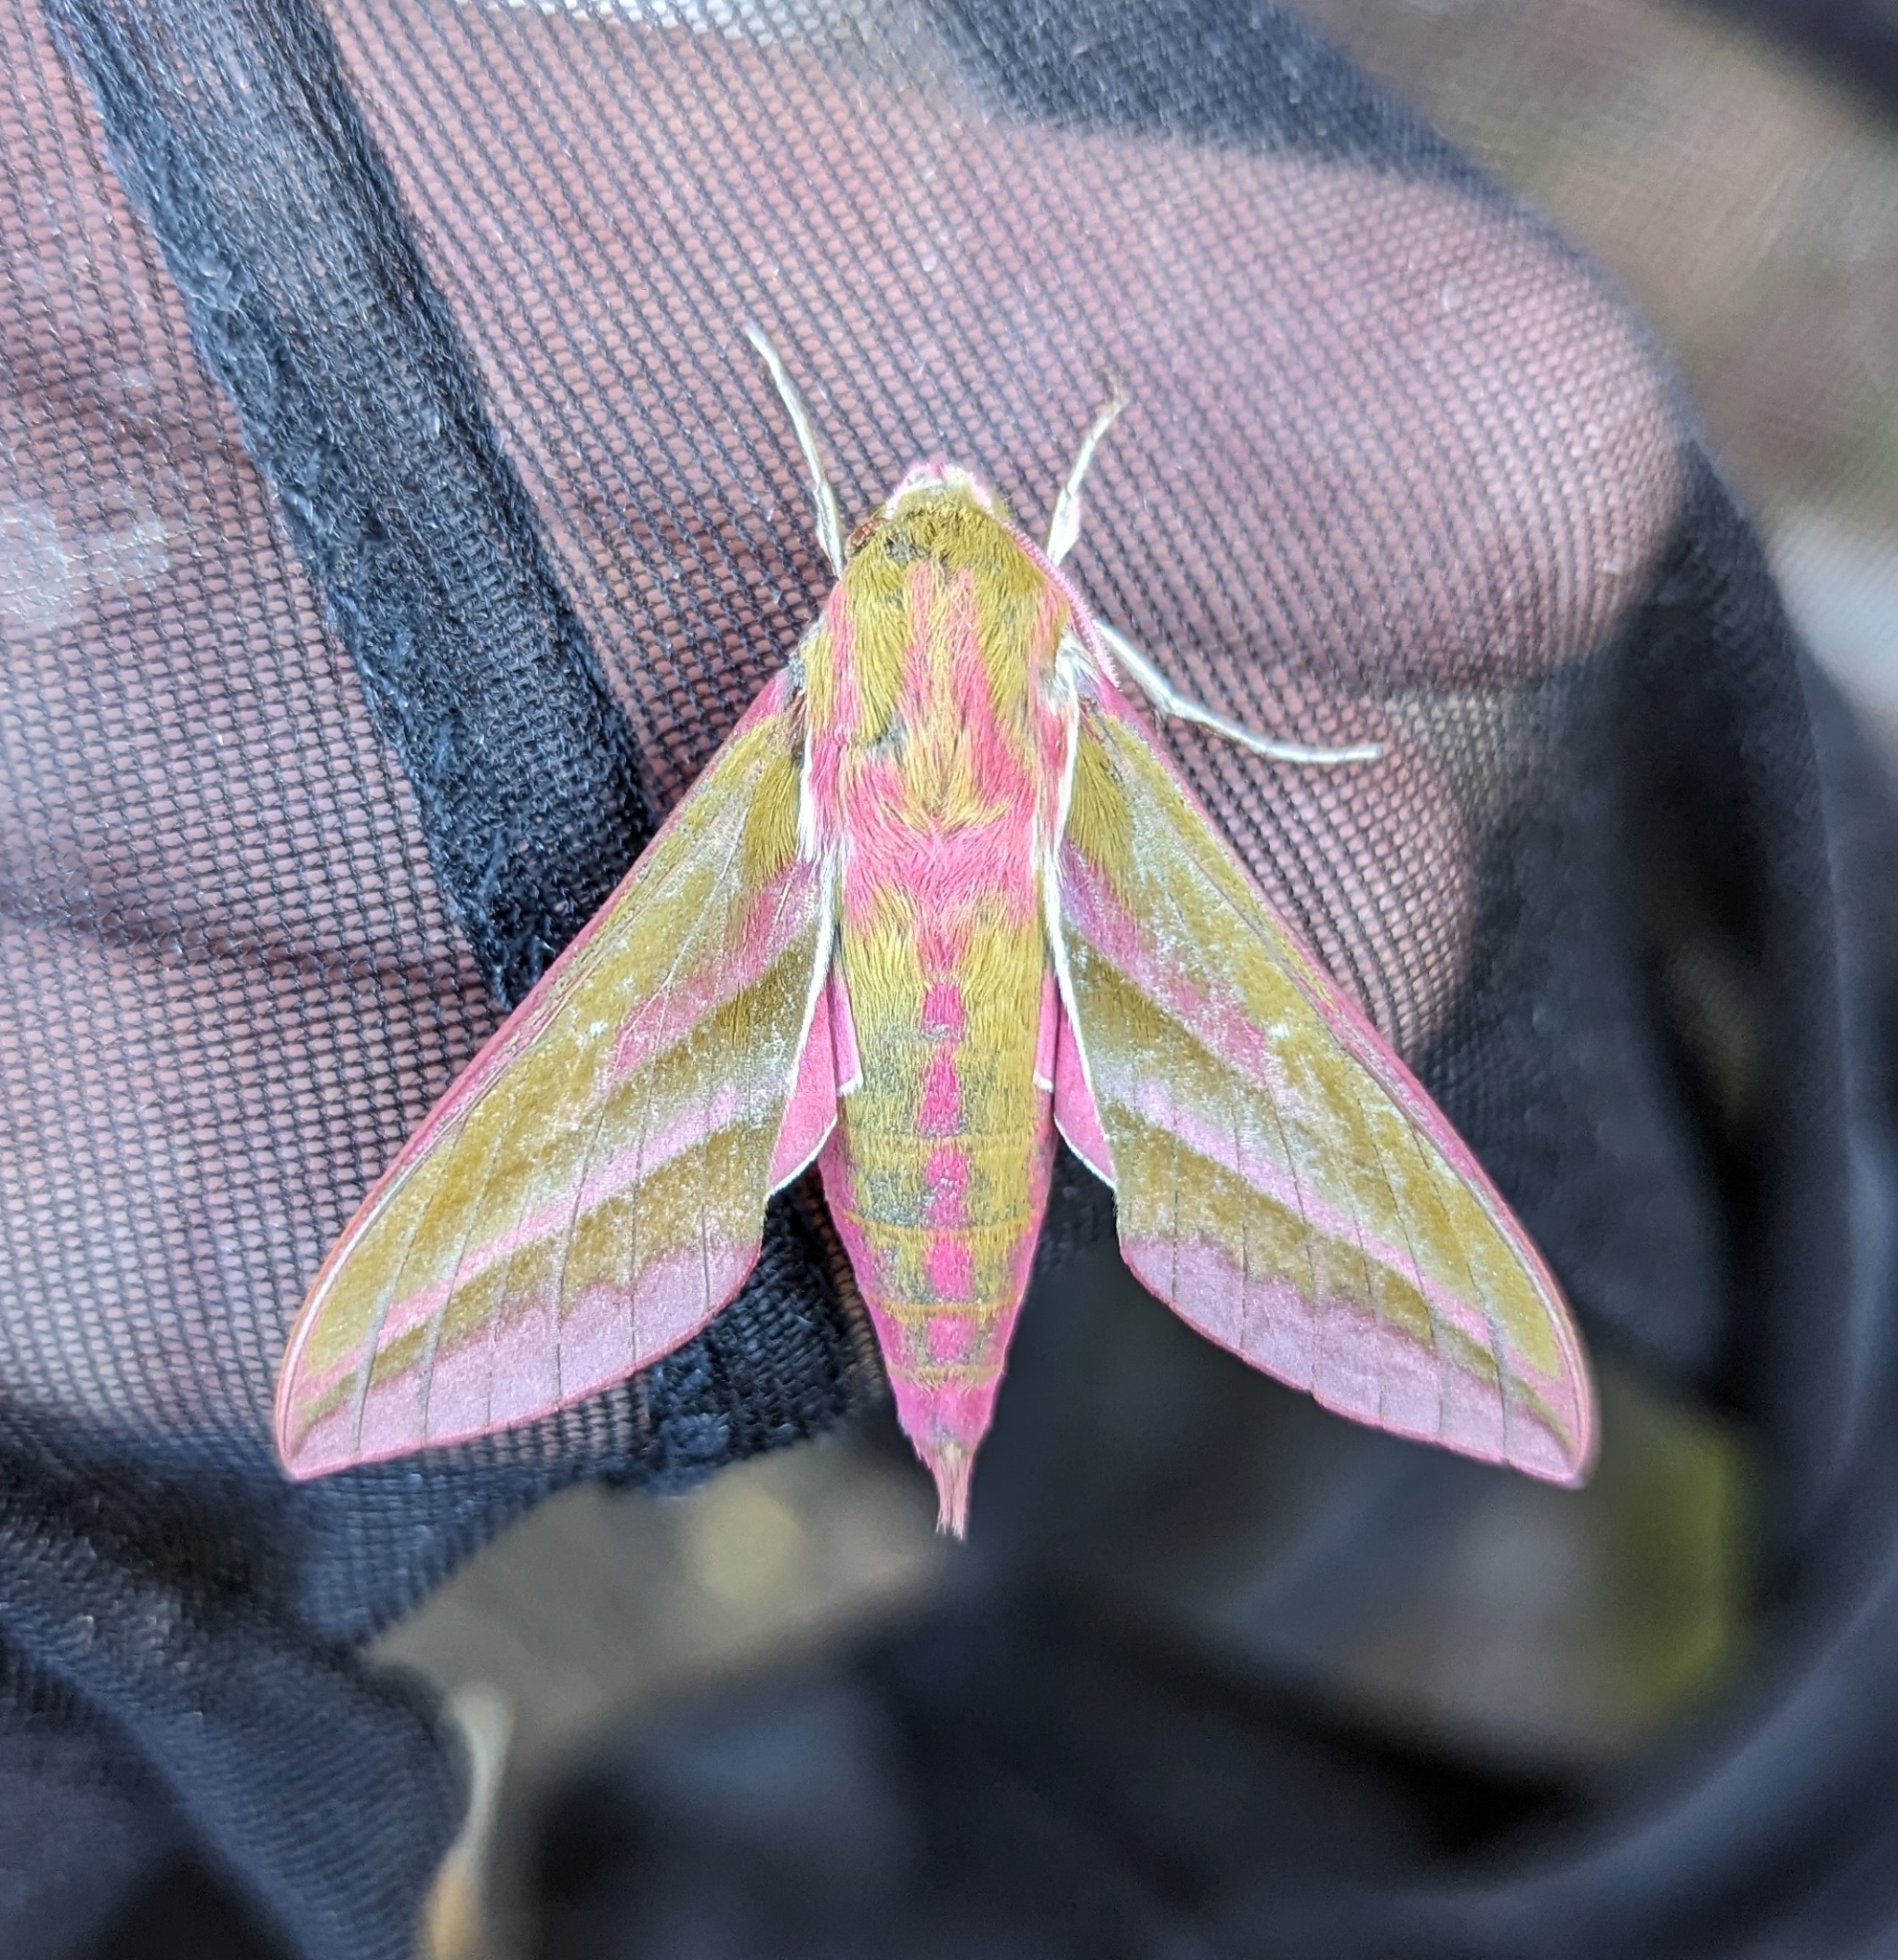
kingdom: Animalia
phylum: Arthropoda
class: Insecta
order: Lepidoptera
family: Sphingidae
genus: Deilephila
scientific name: Deilephila elpenor
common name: Elephant hawk-moth
